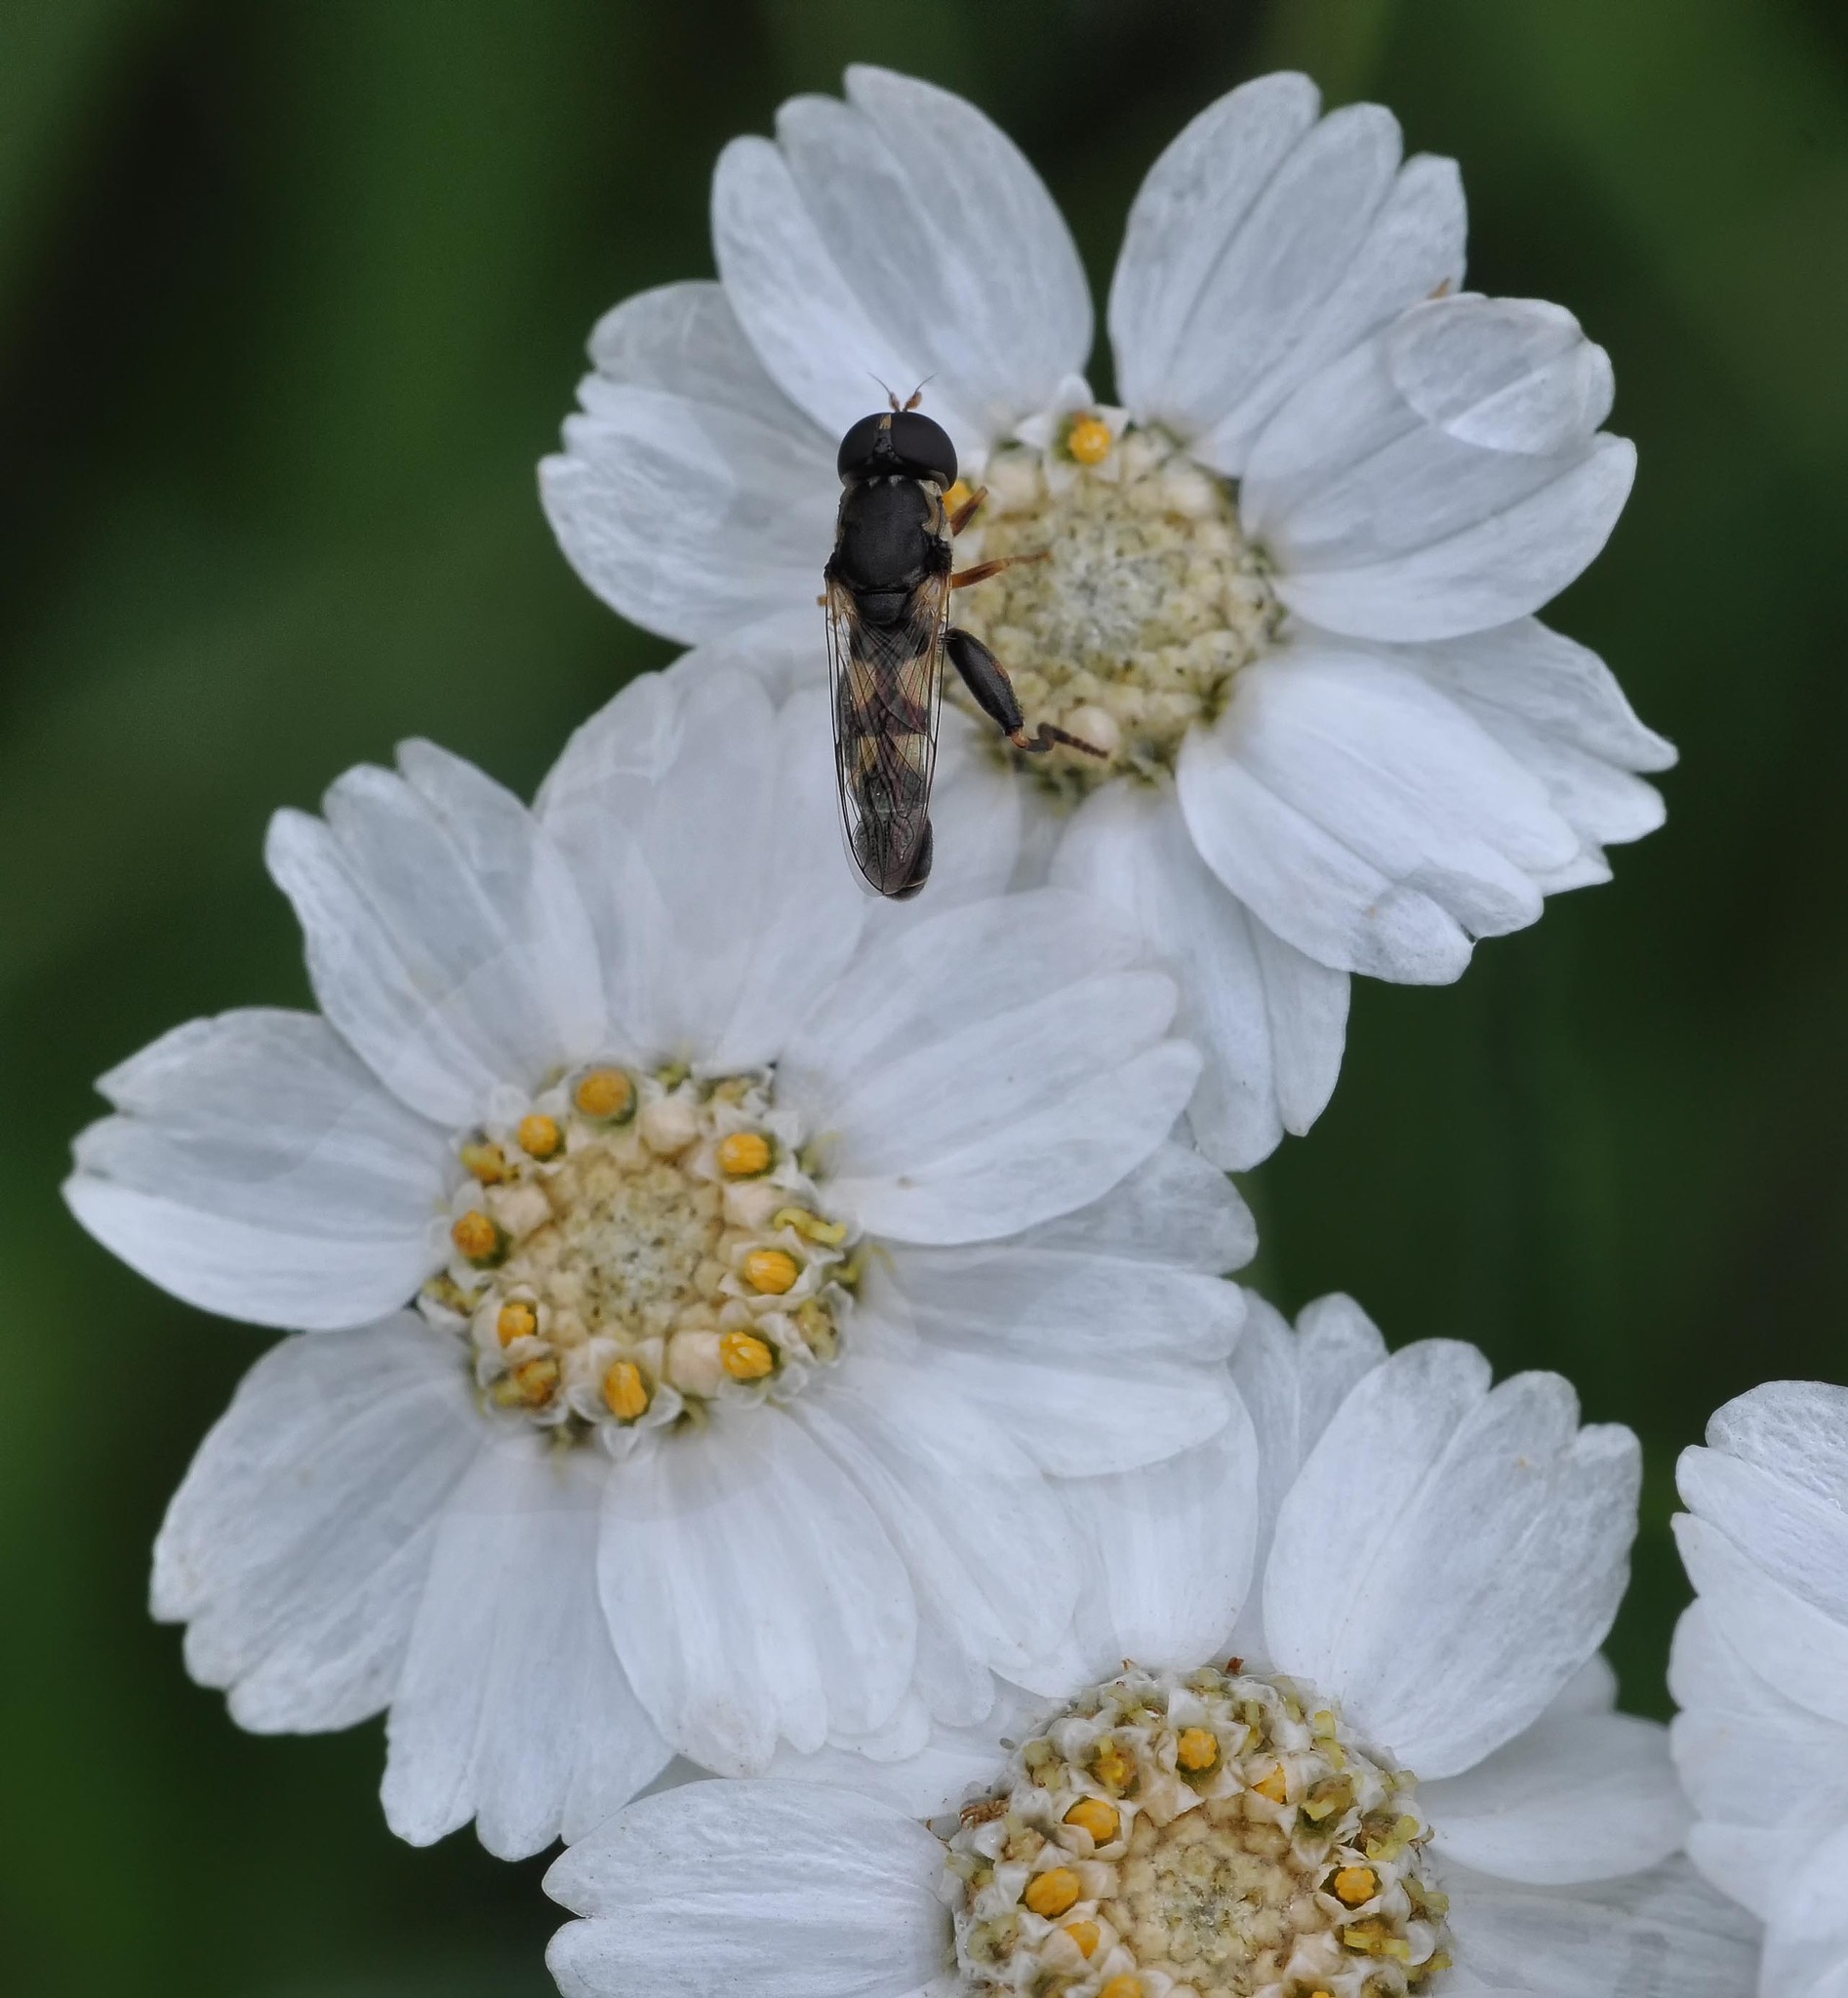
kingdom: Animalia
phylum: Arthropoda
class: Insecta
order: Diptera
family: Syrphidae
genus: Syritta
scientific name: Syritta pipiens
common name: Hover fly
